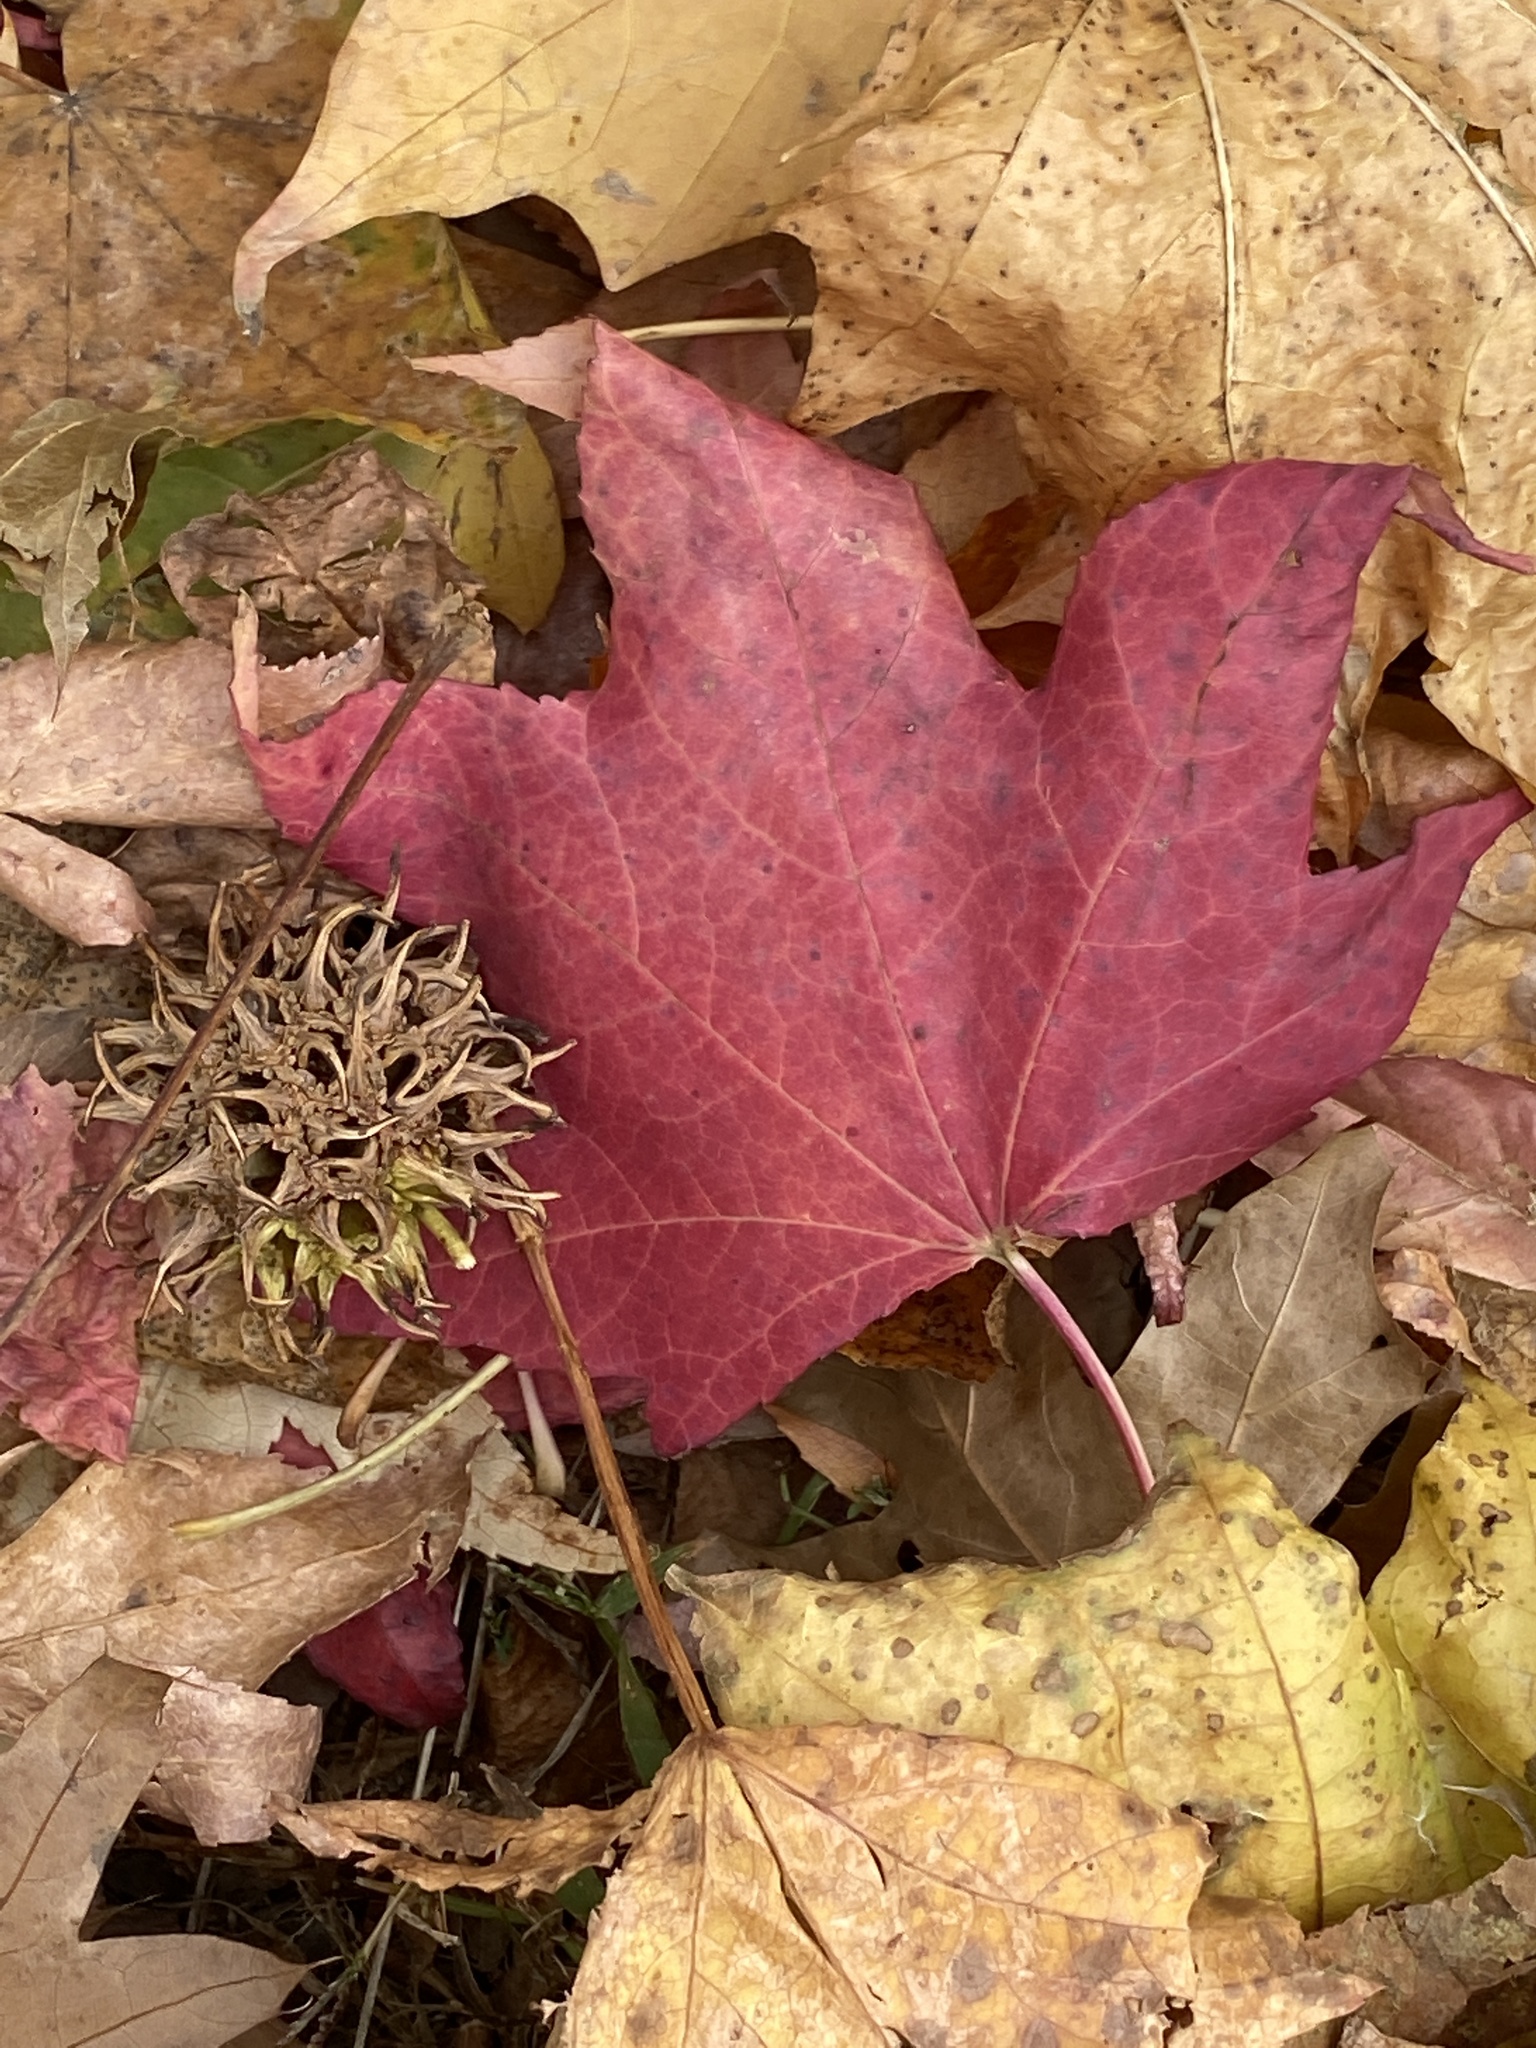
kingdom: Plantae
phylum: Tracheophyta
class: Magnoliopsida
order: Saxifragales
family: Altingiaceae
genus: Liquidambar
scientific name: Liquidambar styraciflua
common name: Sweet gum
